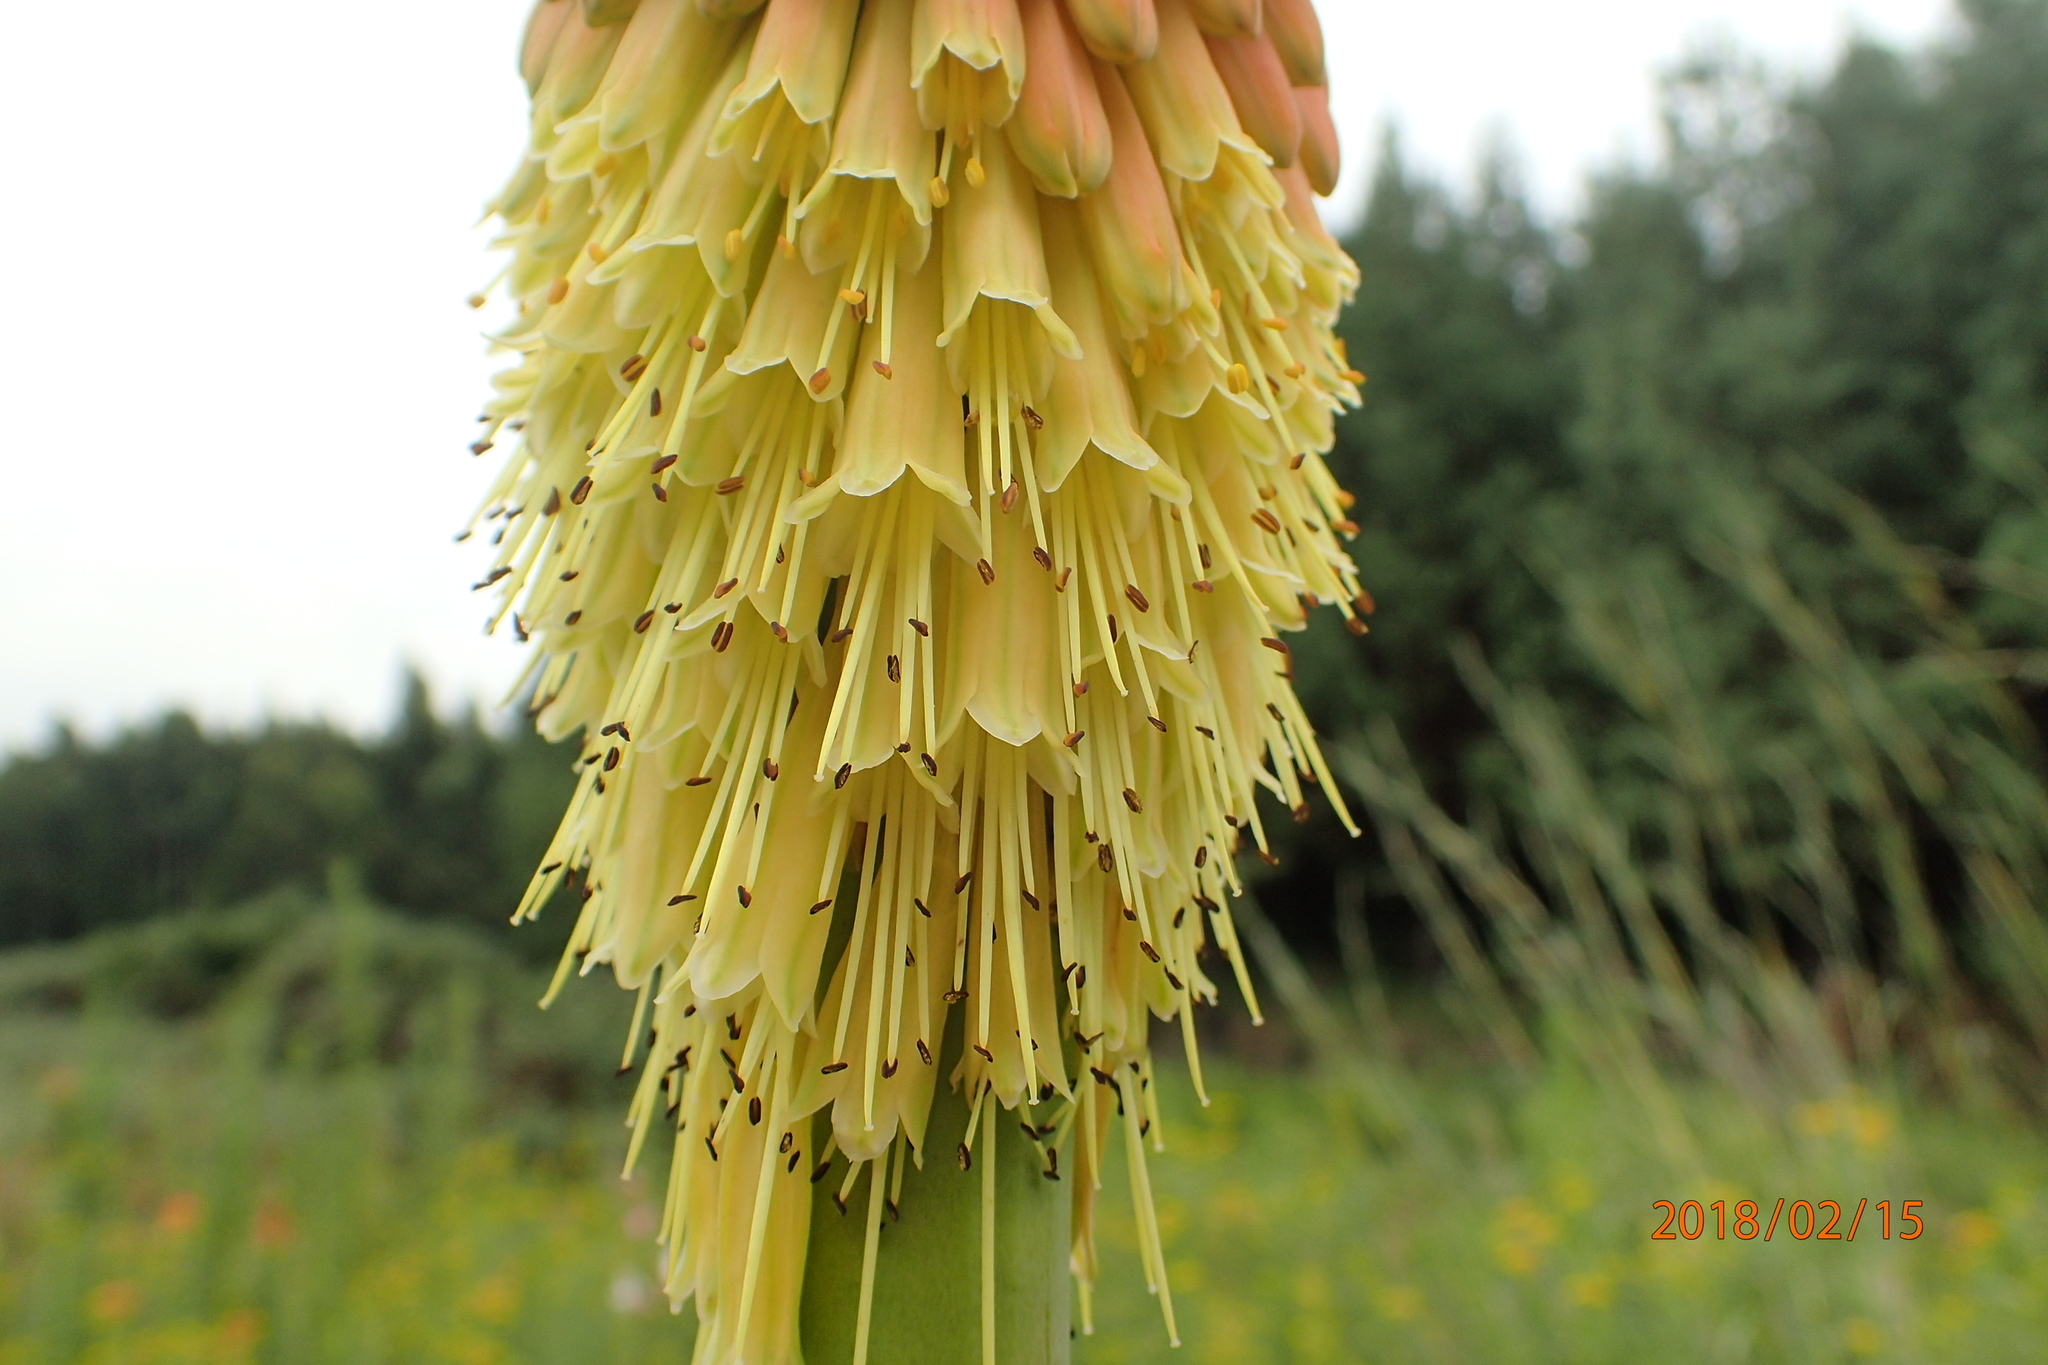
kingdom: Plantae
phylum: Tracheophyta
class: Liliopsida
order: Asparagales
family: Asphodelaceae
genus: Kniphofia
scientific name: Kniphofia linearifolia
